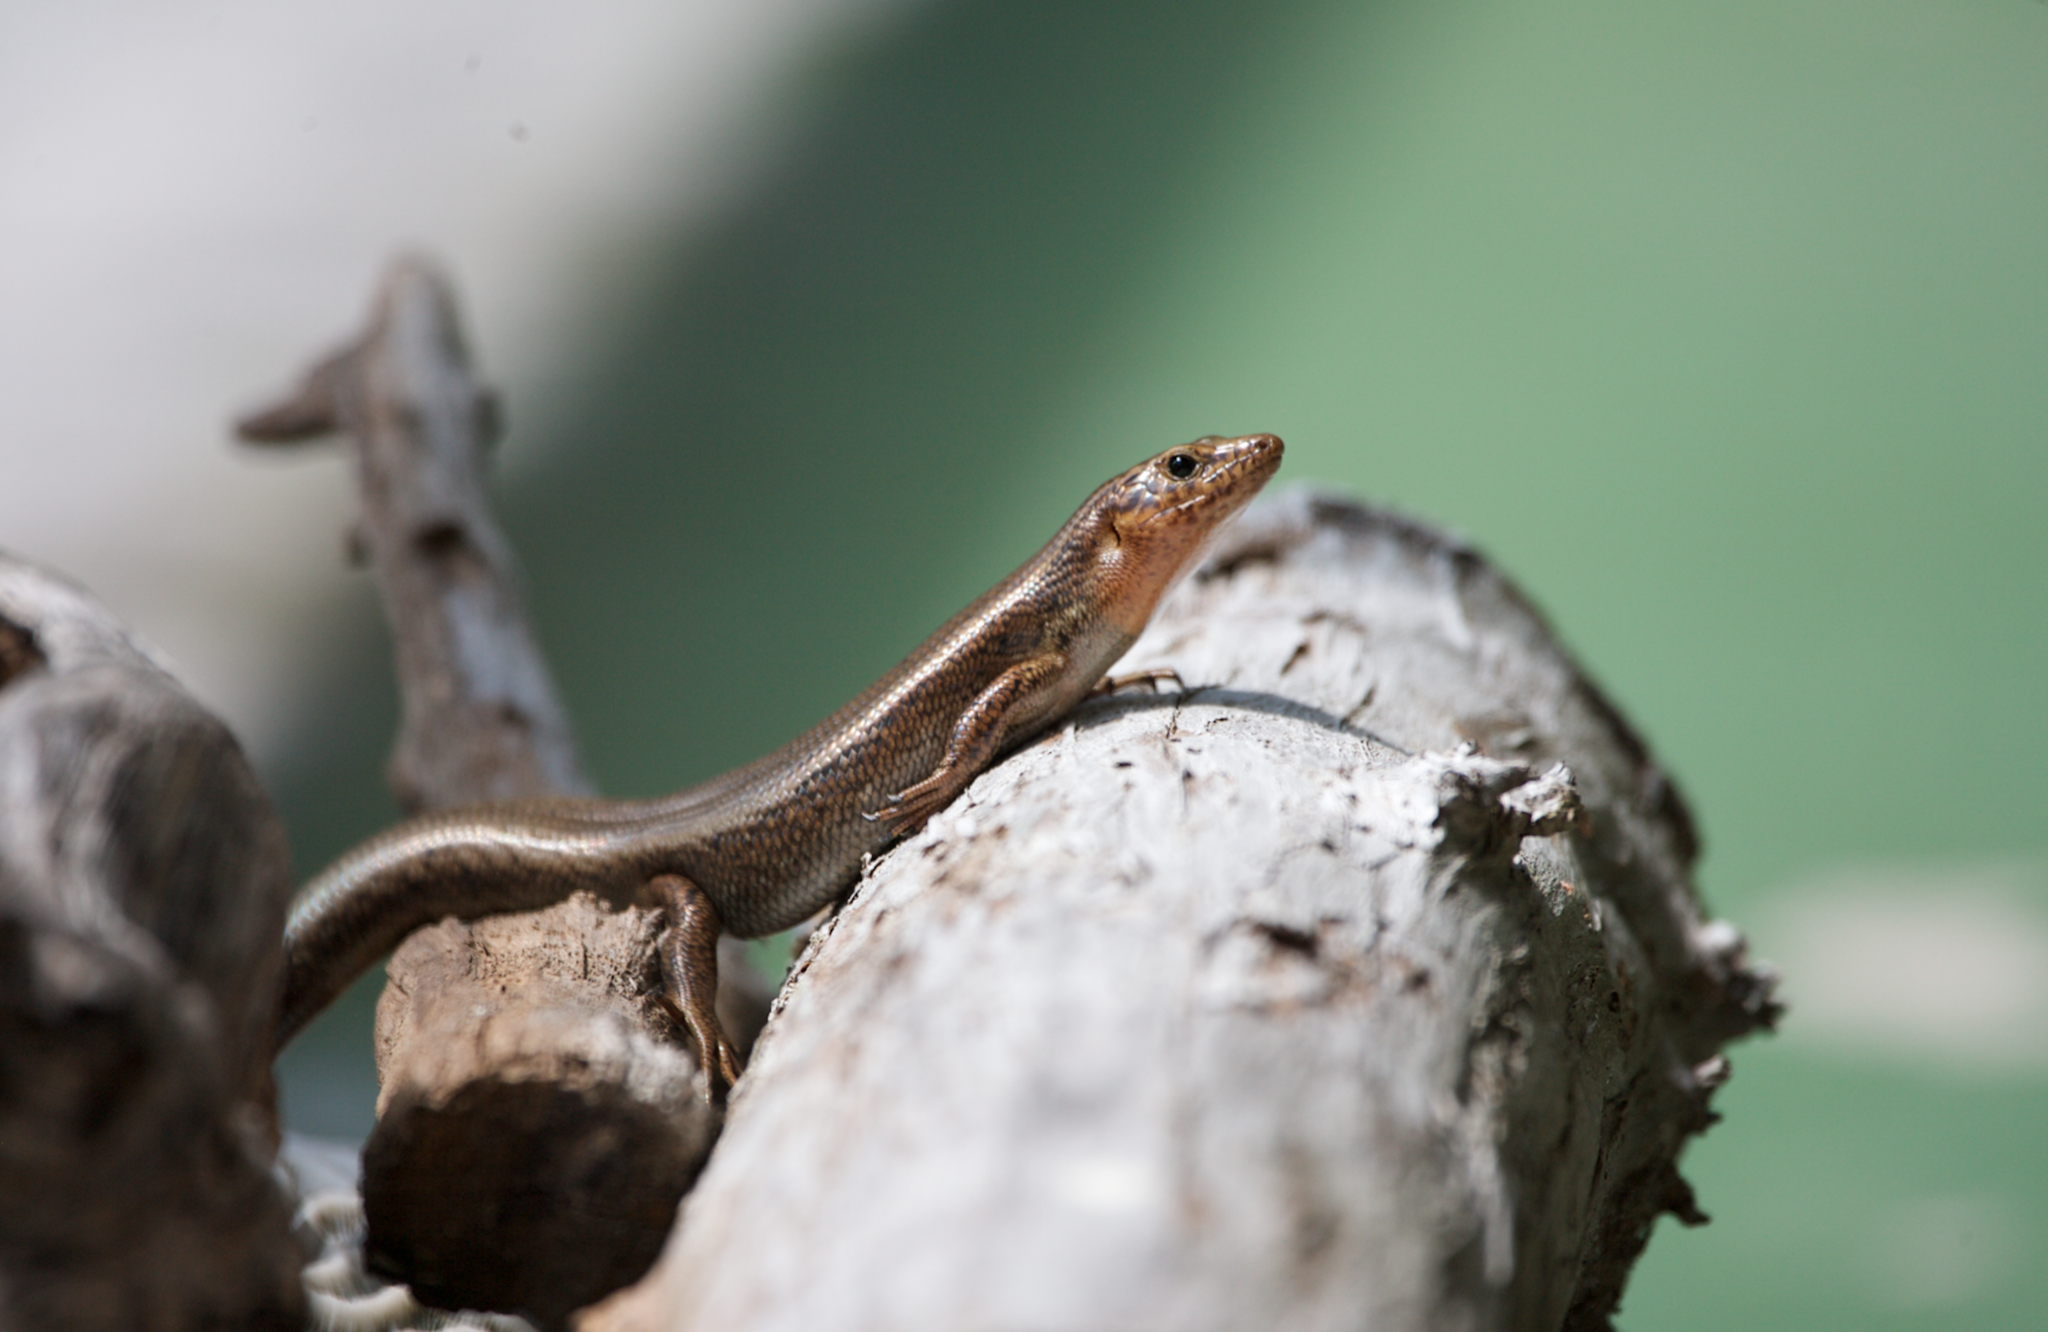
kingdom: Animalia
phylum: Chordata
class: Squamata
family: Scincidae
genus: Plestiodon
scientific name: Plestiodon longirostris
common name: Bermuda skink
